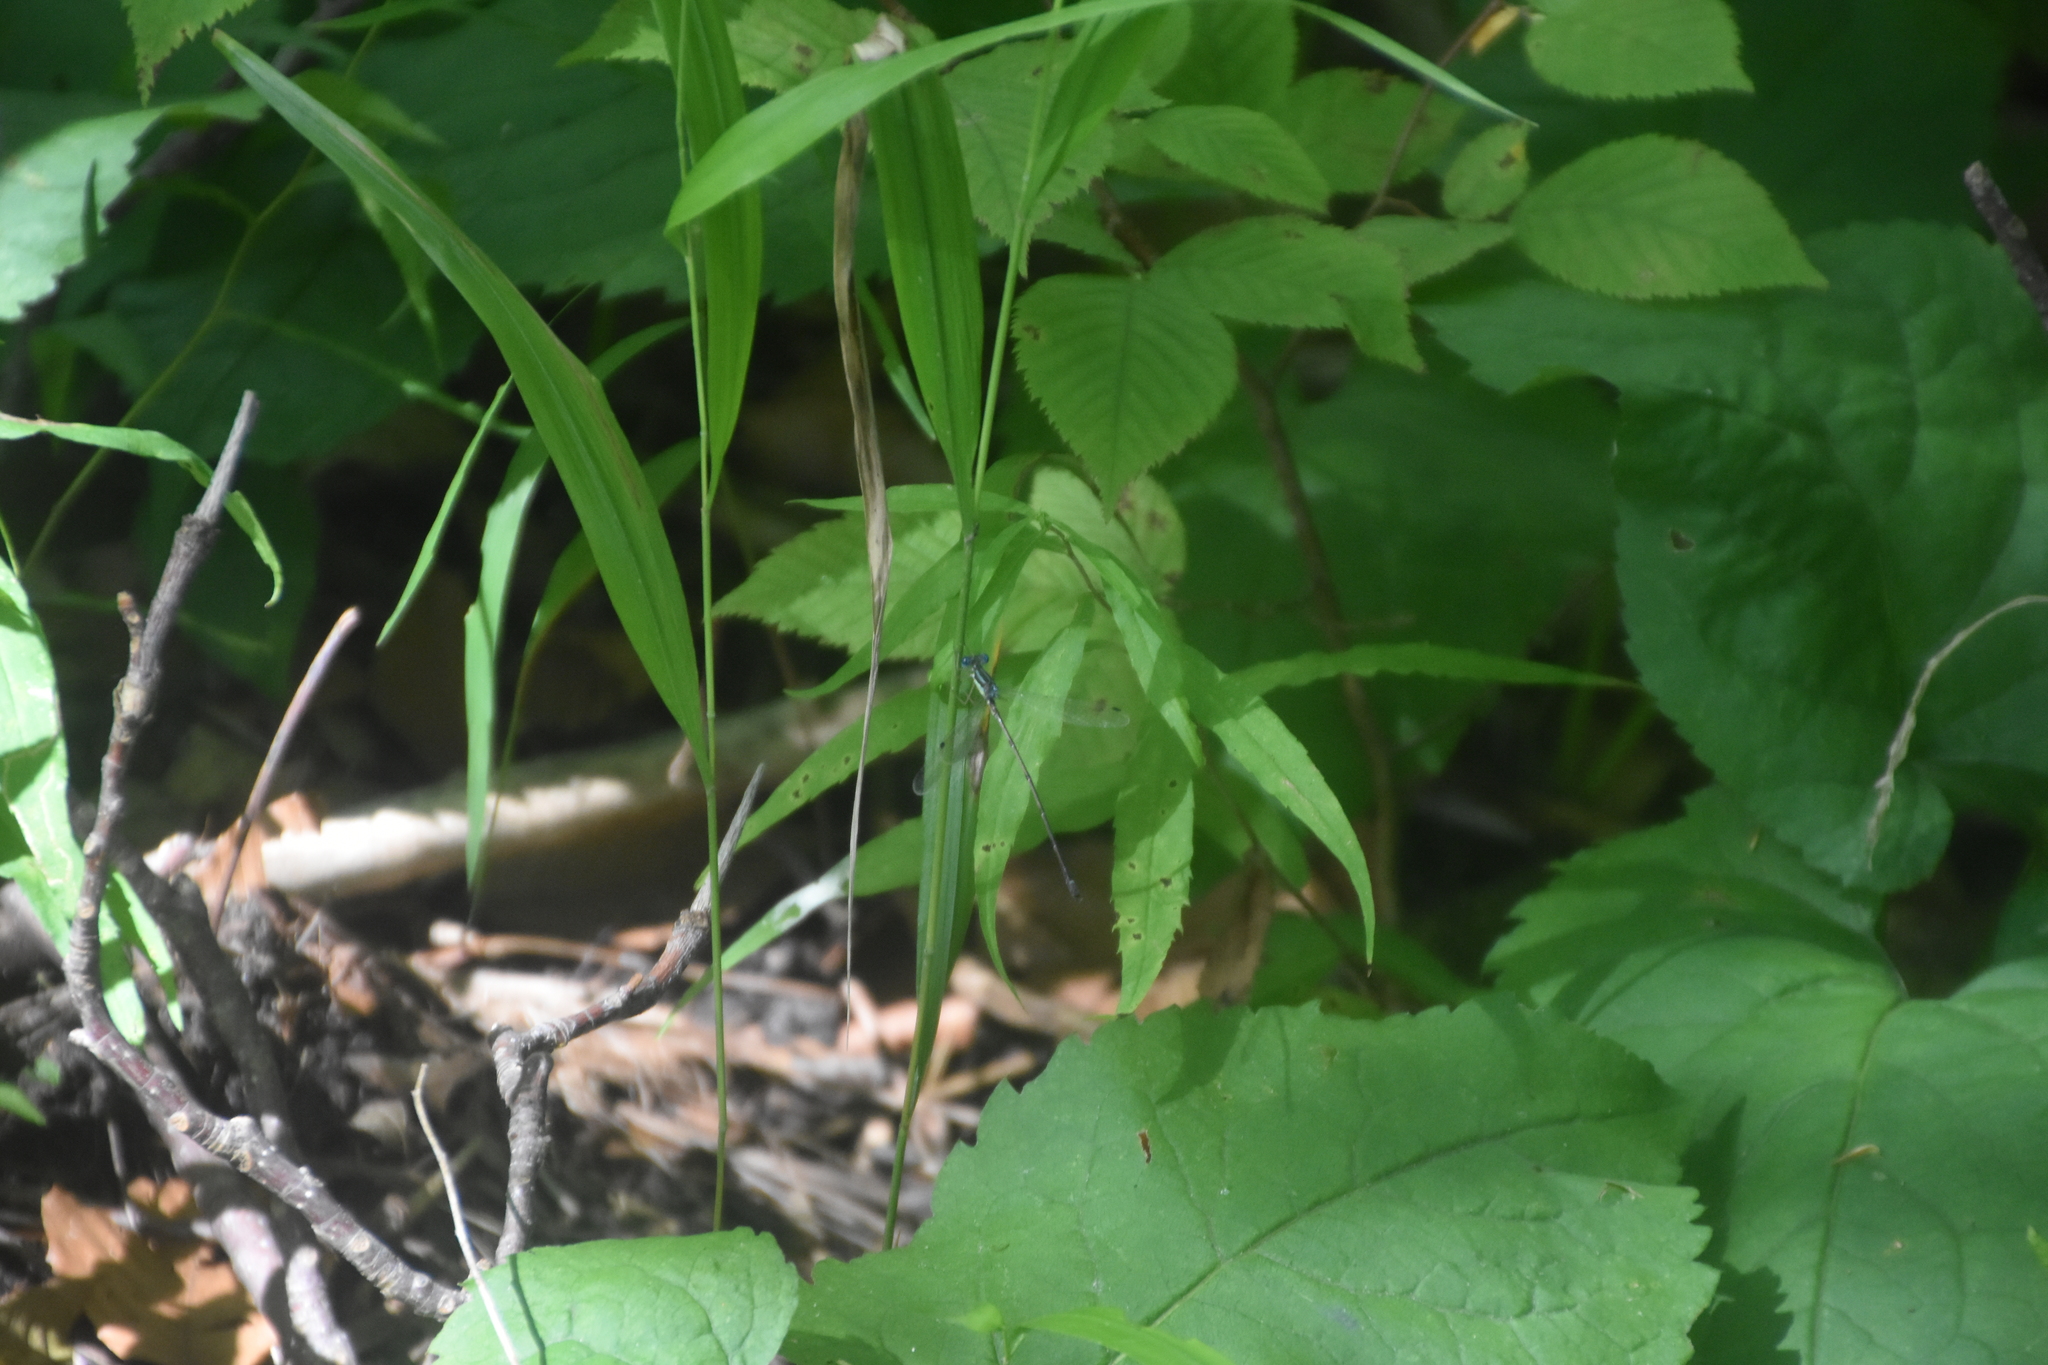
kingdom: Animalia
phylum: Arthropoda
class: Insecta
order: Odonata
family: Lestidae
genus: Lestes
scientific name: Lestes rectangularis
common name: Slender spreadwing
